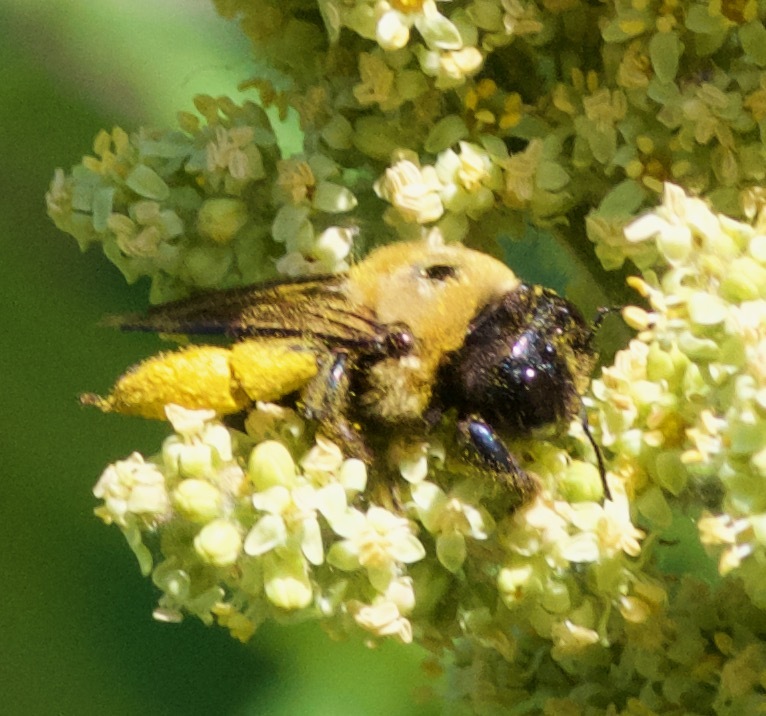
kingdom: Animalia
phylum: Arthropoda
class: Insecta
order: Hymenoptera
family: Apidae
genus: Xylocopa
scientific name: Xylocopa virginica
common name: Carpenter bee
